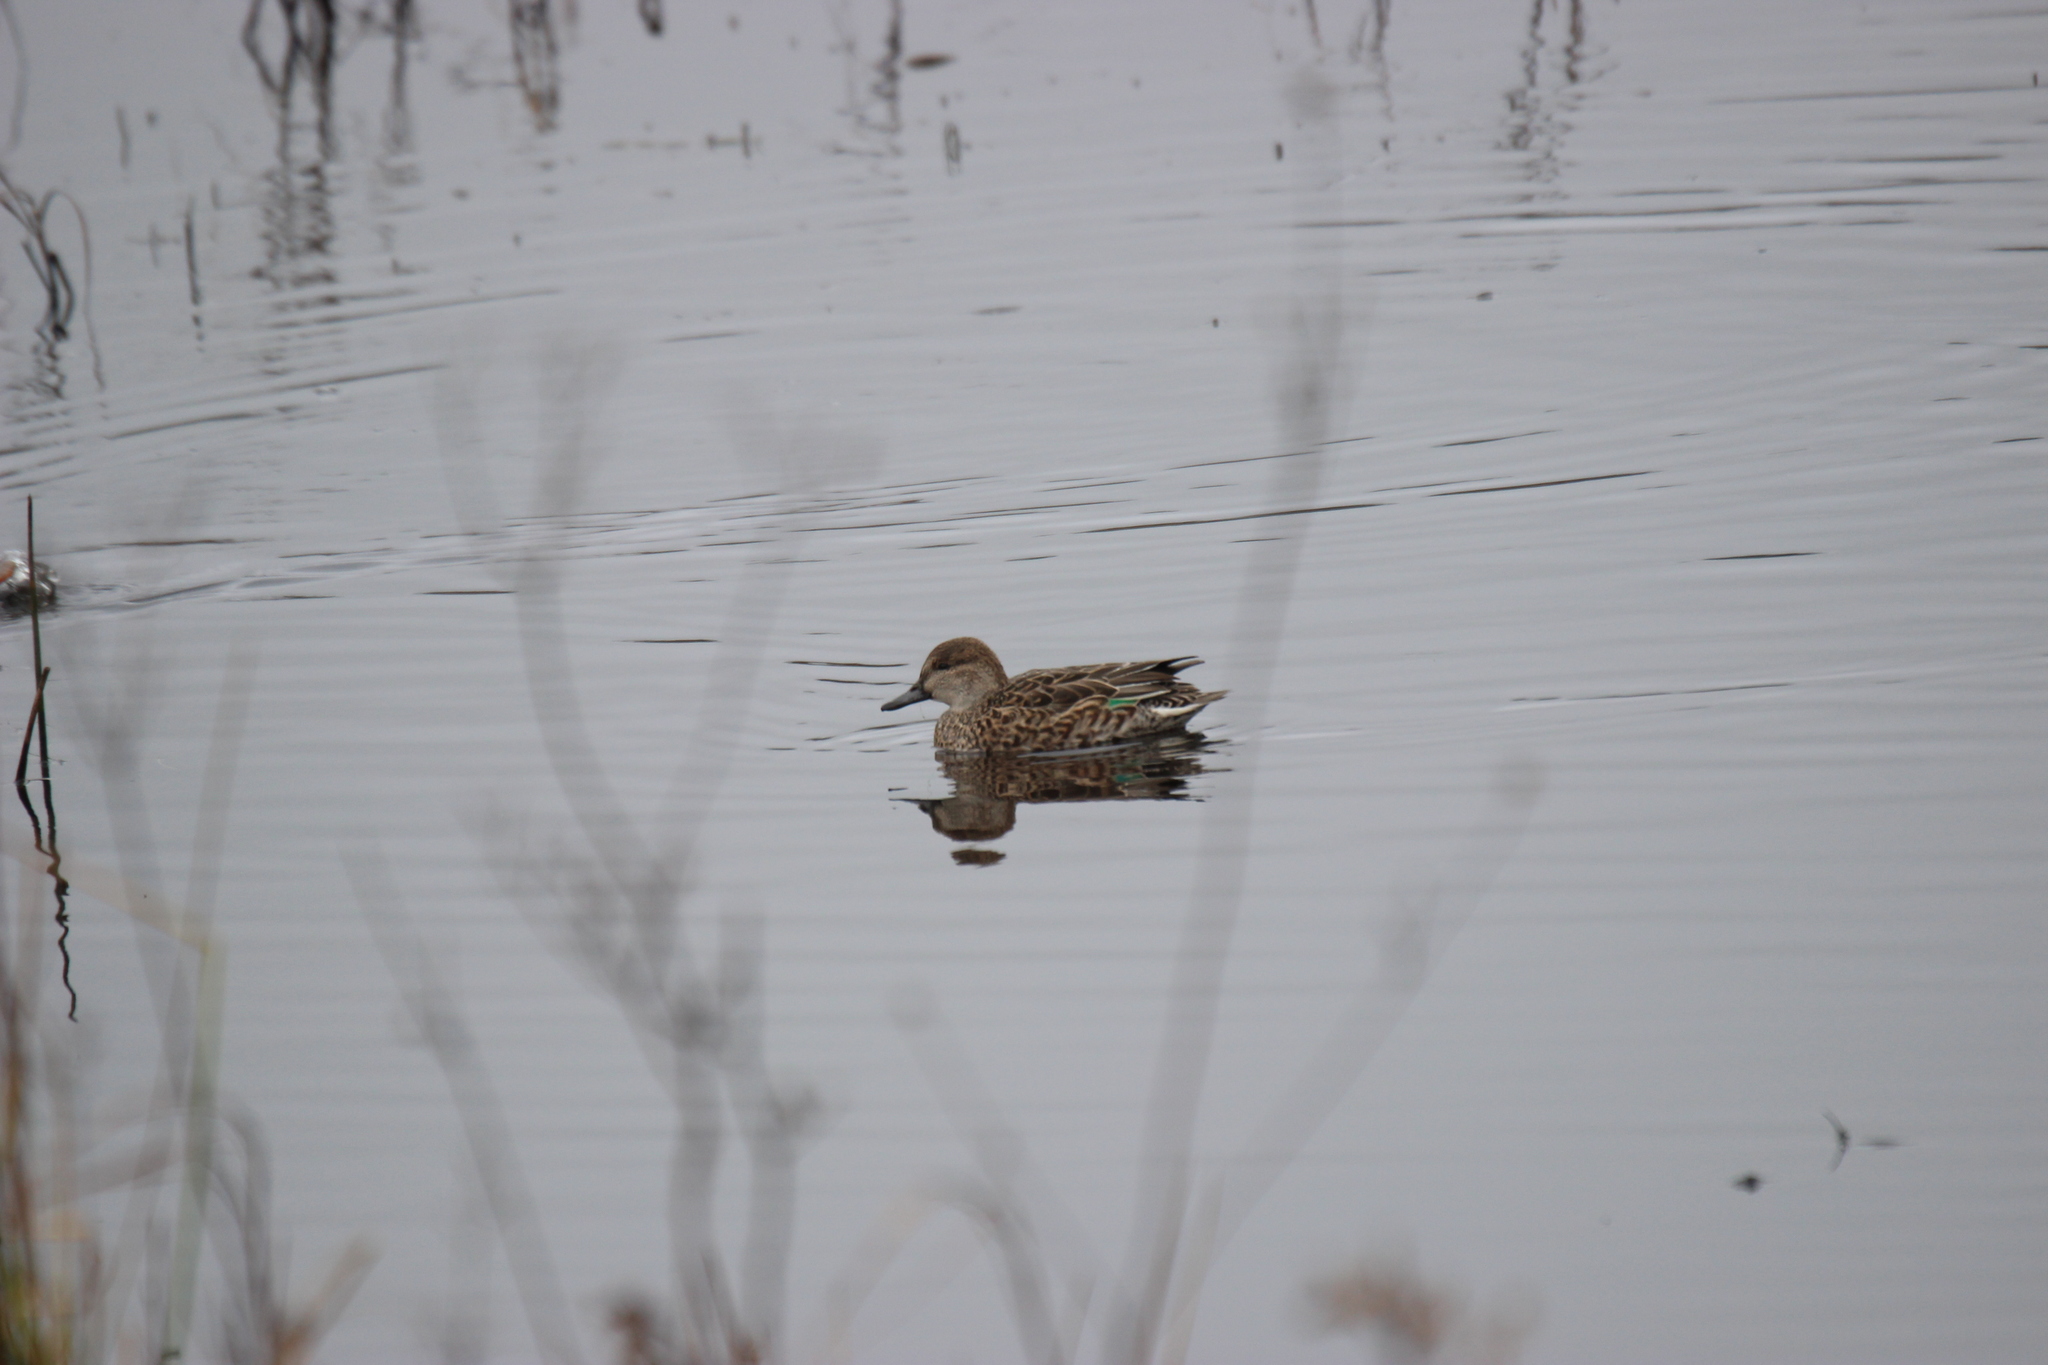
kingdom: Animalia
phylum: Chordata
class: Aves
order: Anseriformes
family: Anatidae
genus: Anas
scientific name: Anas crecca
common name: Eurasian teal
